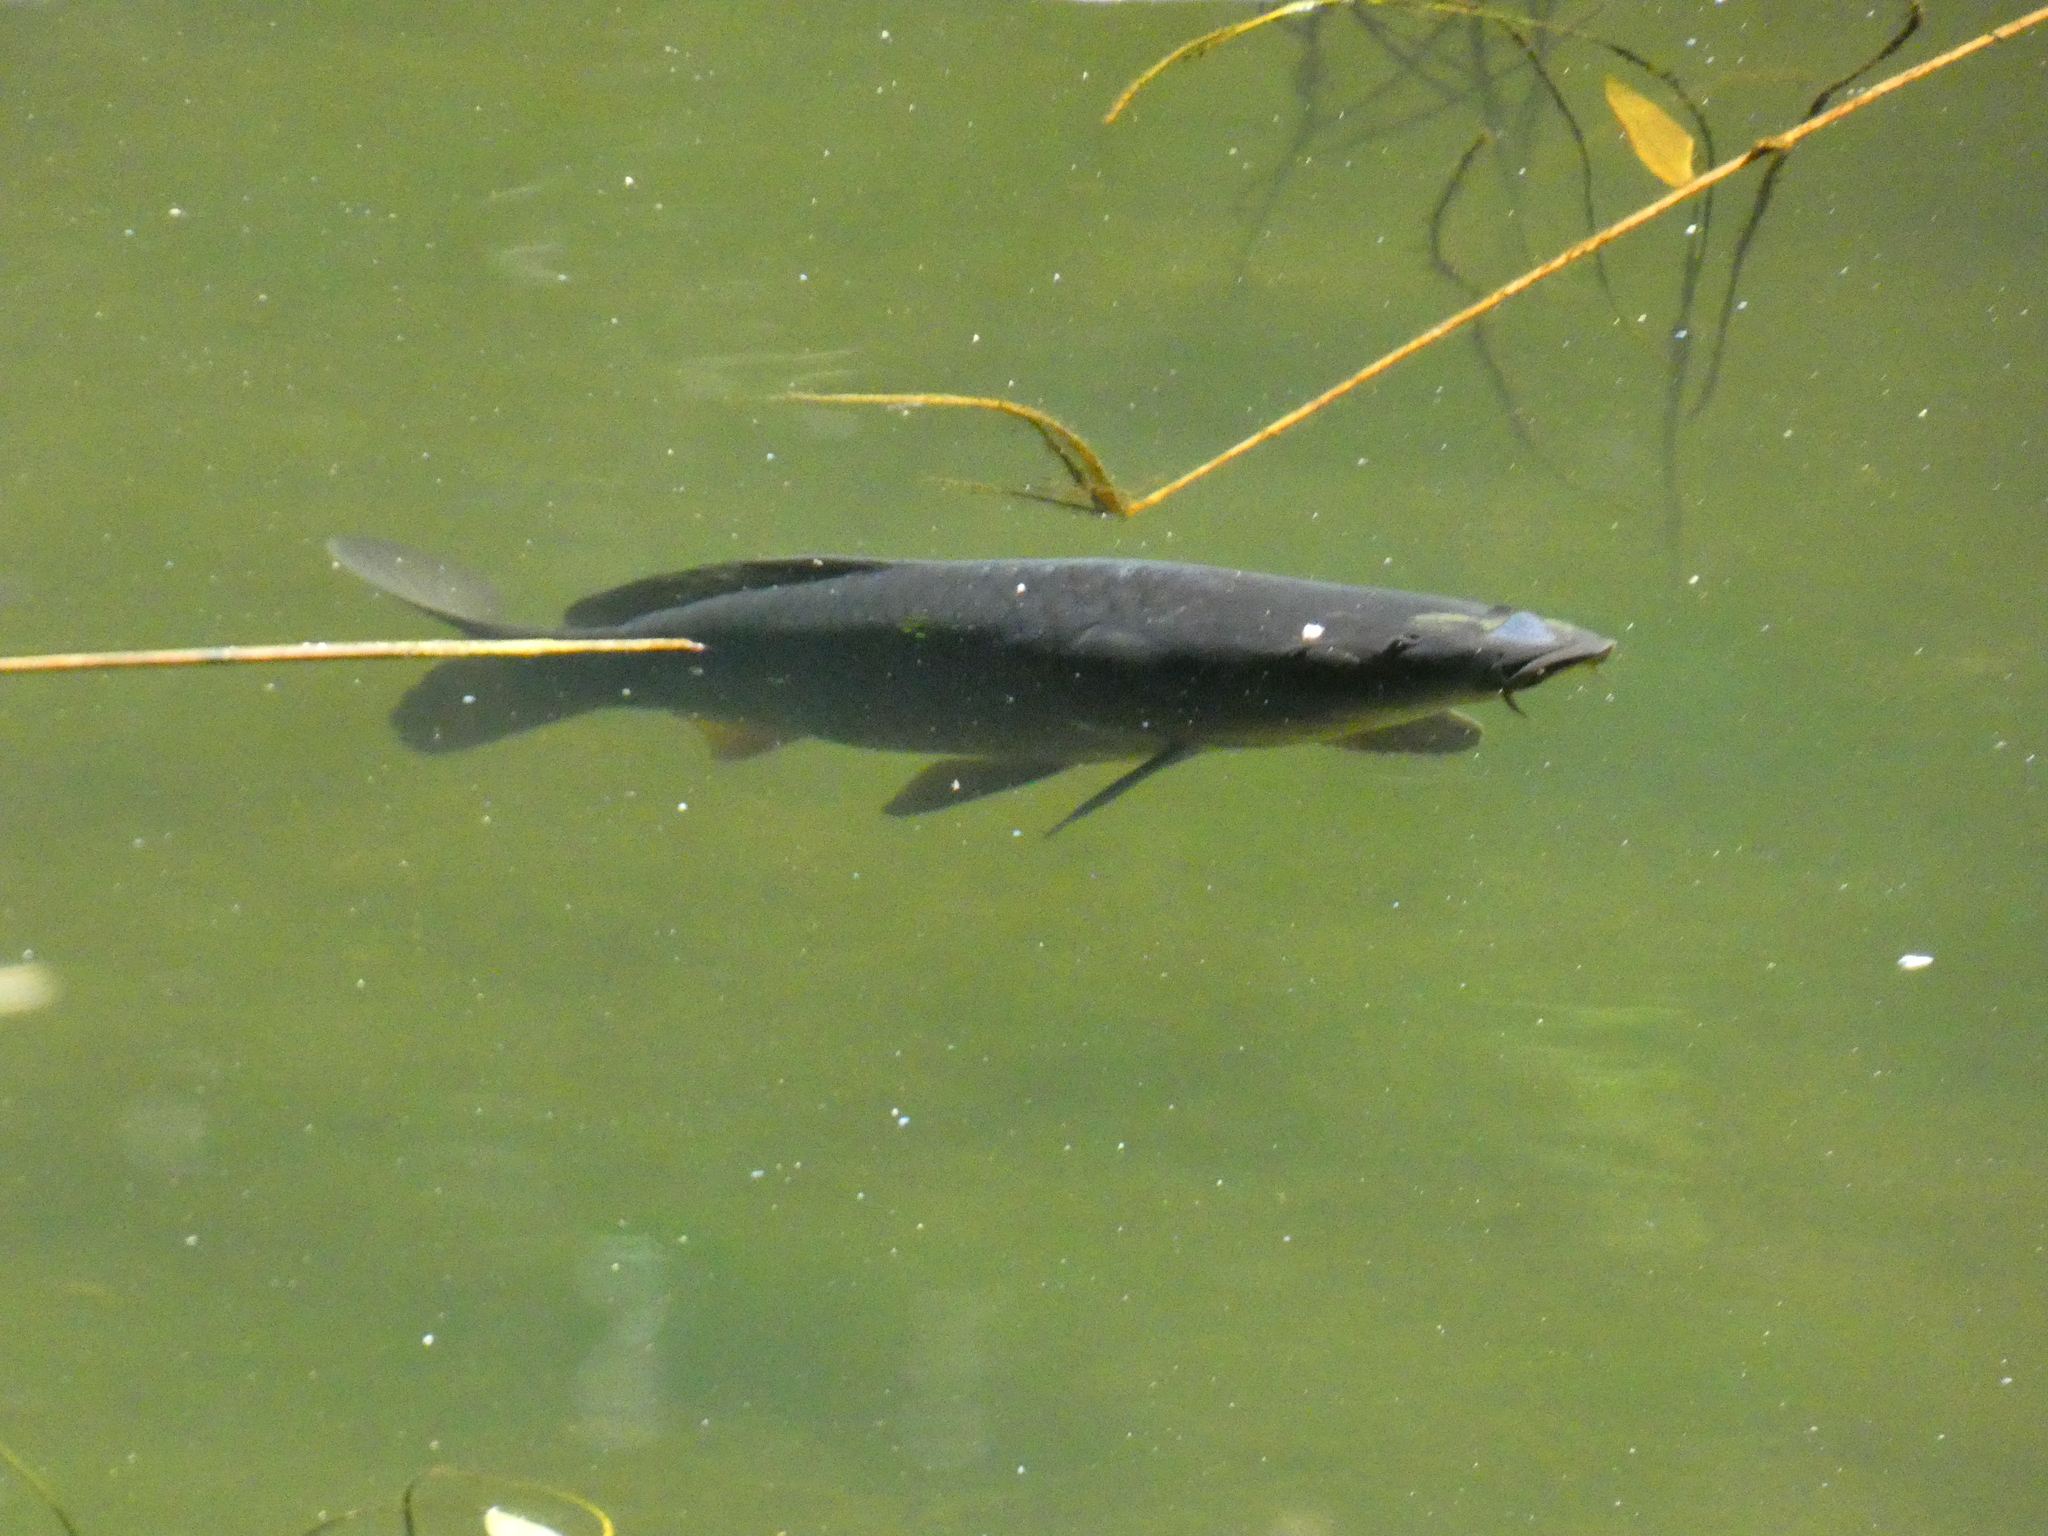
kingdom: Animalia
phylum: Chordata
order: Cypriniformes
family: Cyprinidae
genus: Cyprinus
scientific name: Cyprinus carpio
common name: Common carp
